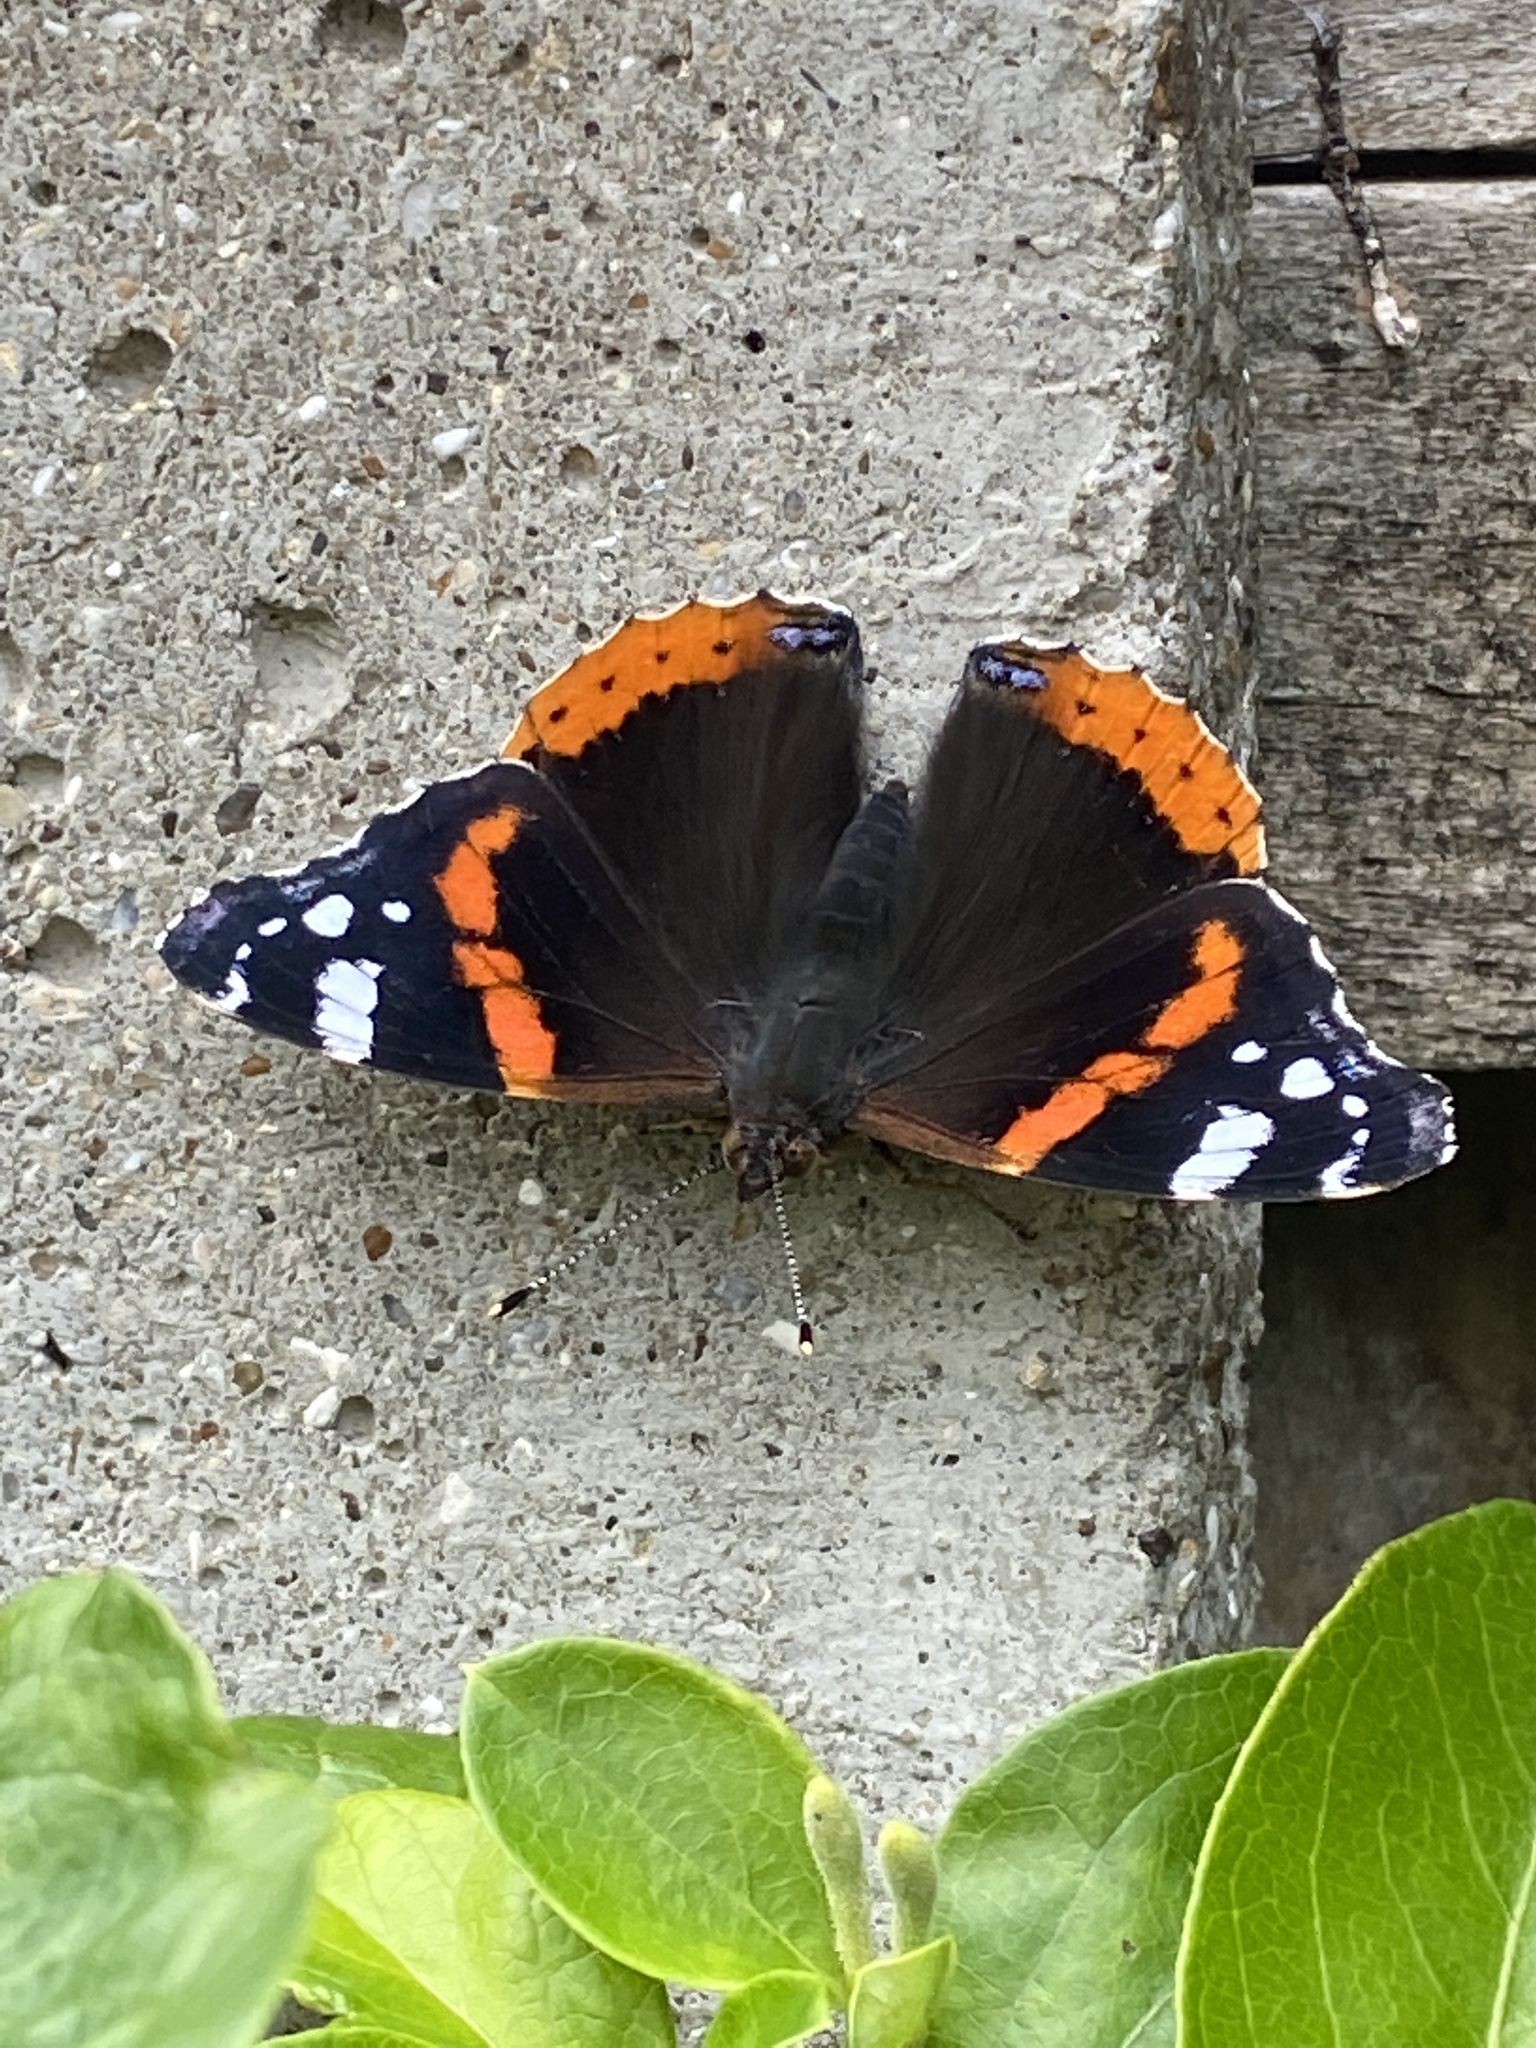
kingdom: Animalia
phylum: Arthropoda
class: Insecta
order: Lepidoptera
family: Nymphalidae
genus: Vanessa
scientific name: Vanessa atalanta
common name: Red admiral
